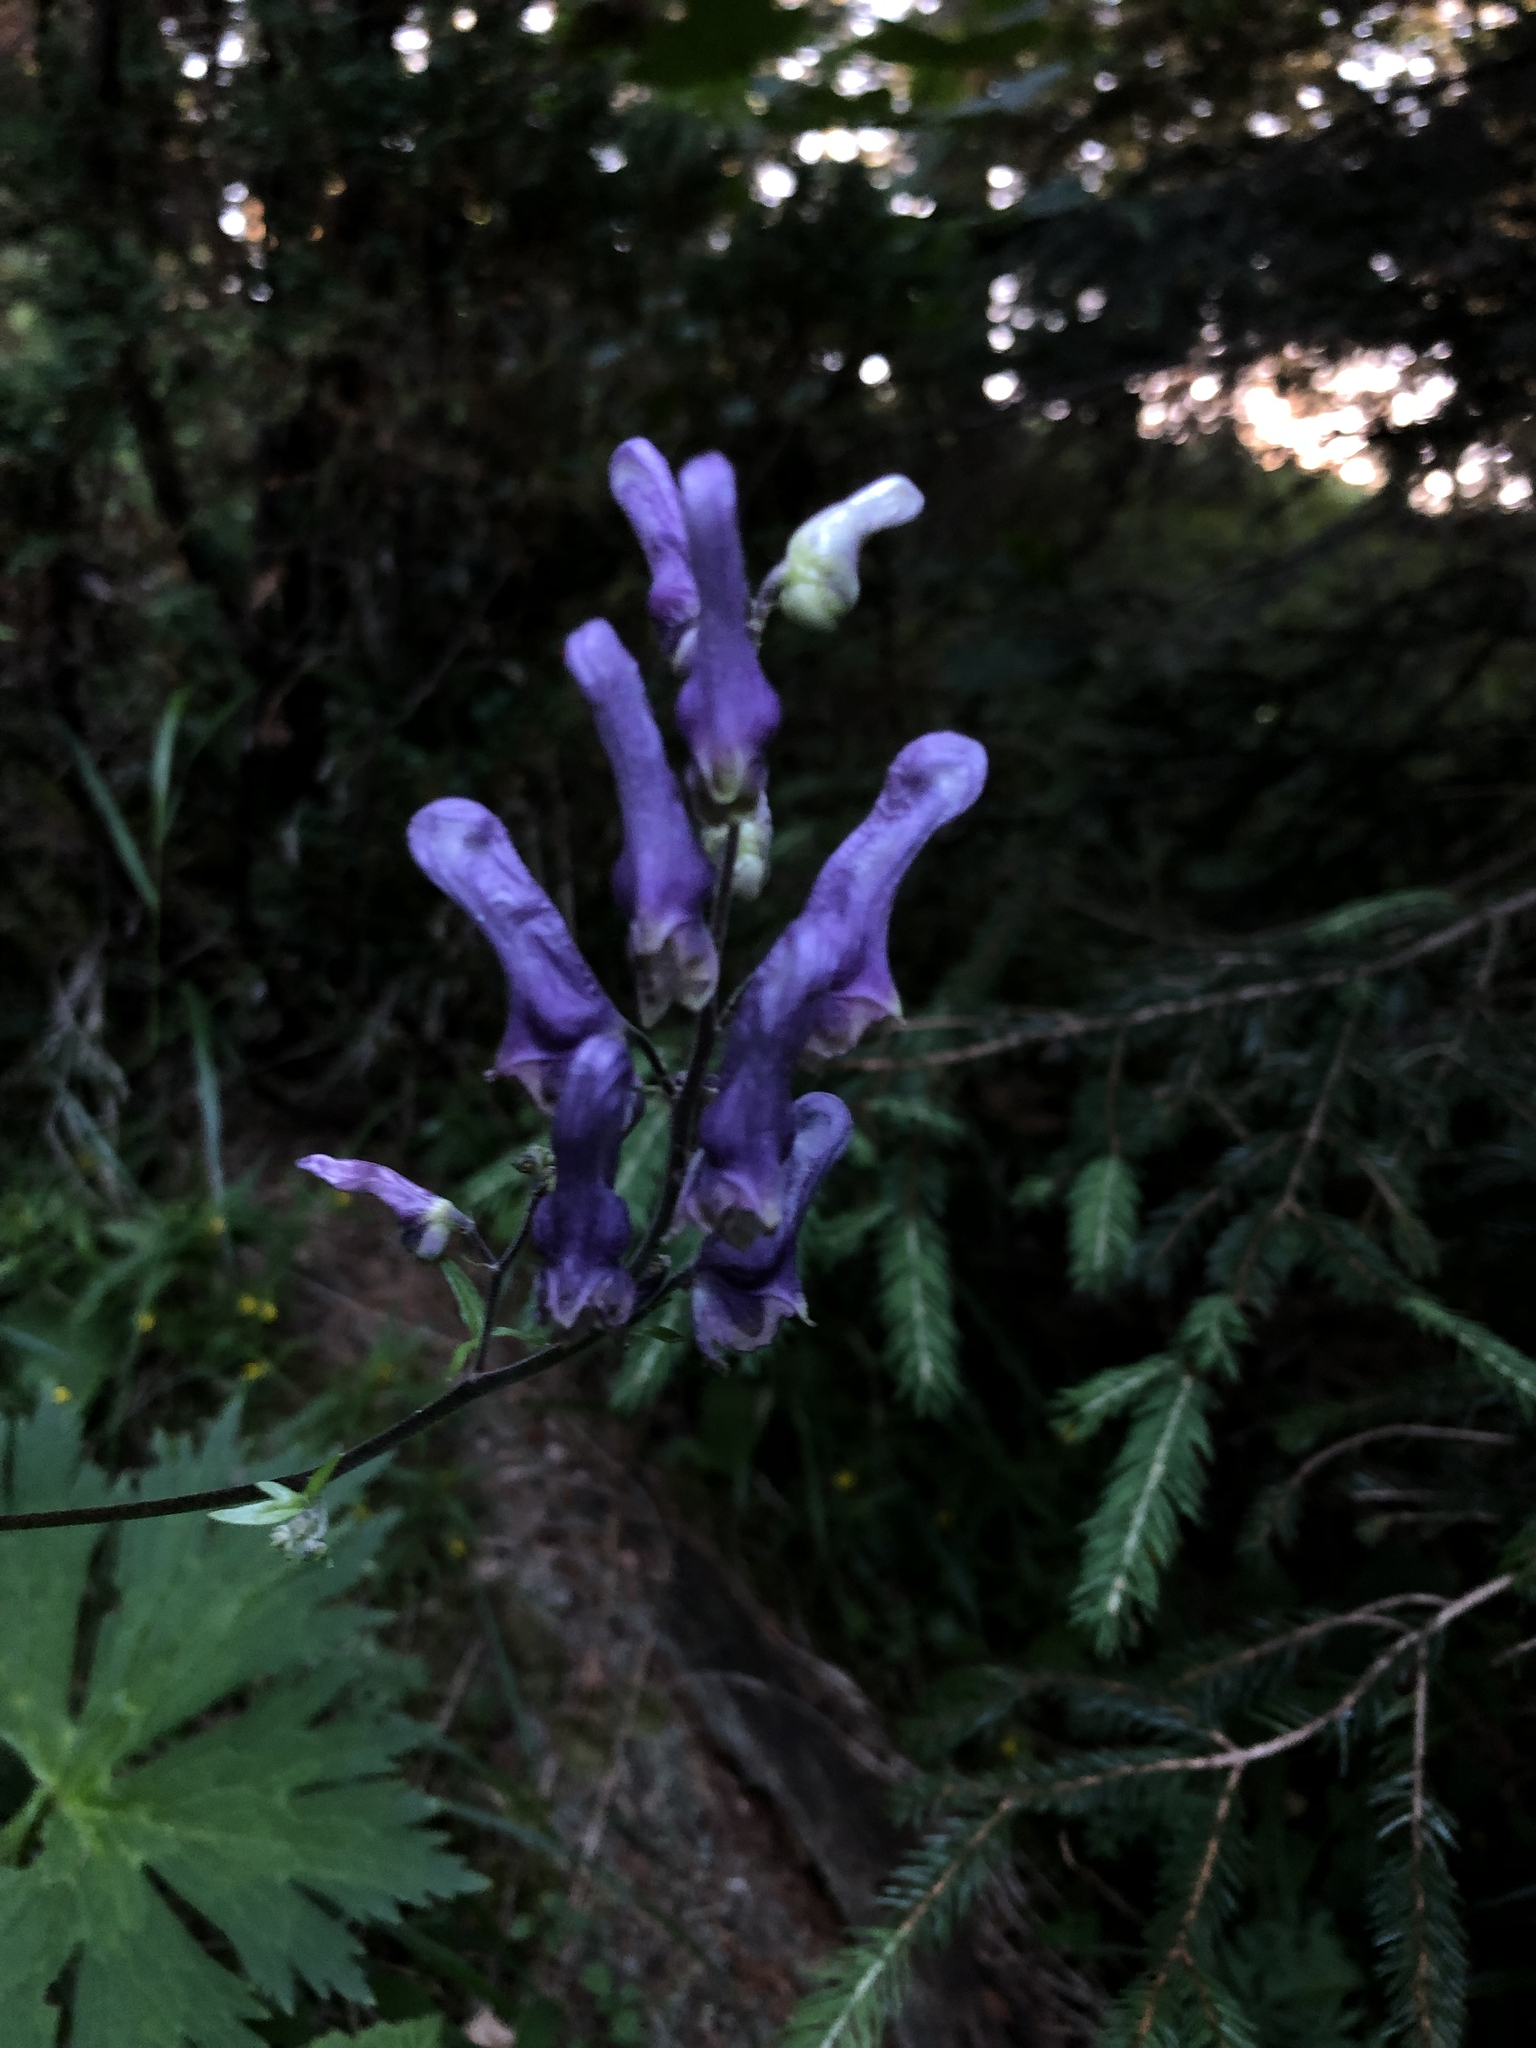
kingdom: Plantae
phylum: Tracheophyta
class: Magnoliopsida
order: Ranunculales
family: Ranunculaceae
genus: Aconitum
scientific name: Aconitum lycoctonum
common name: Wolf's-bane
